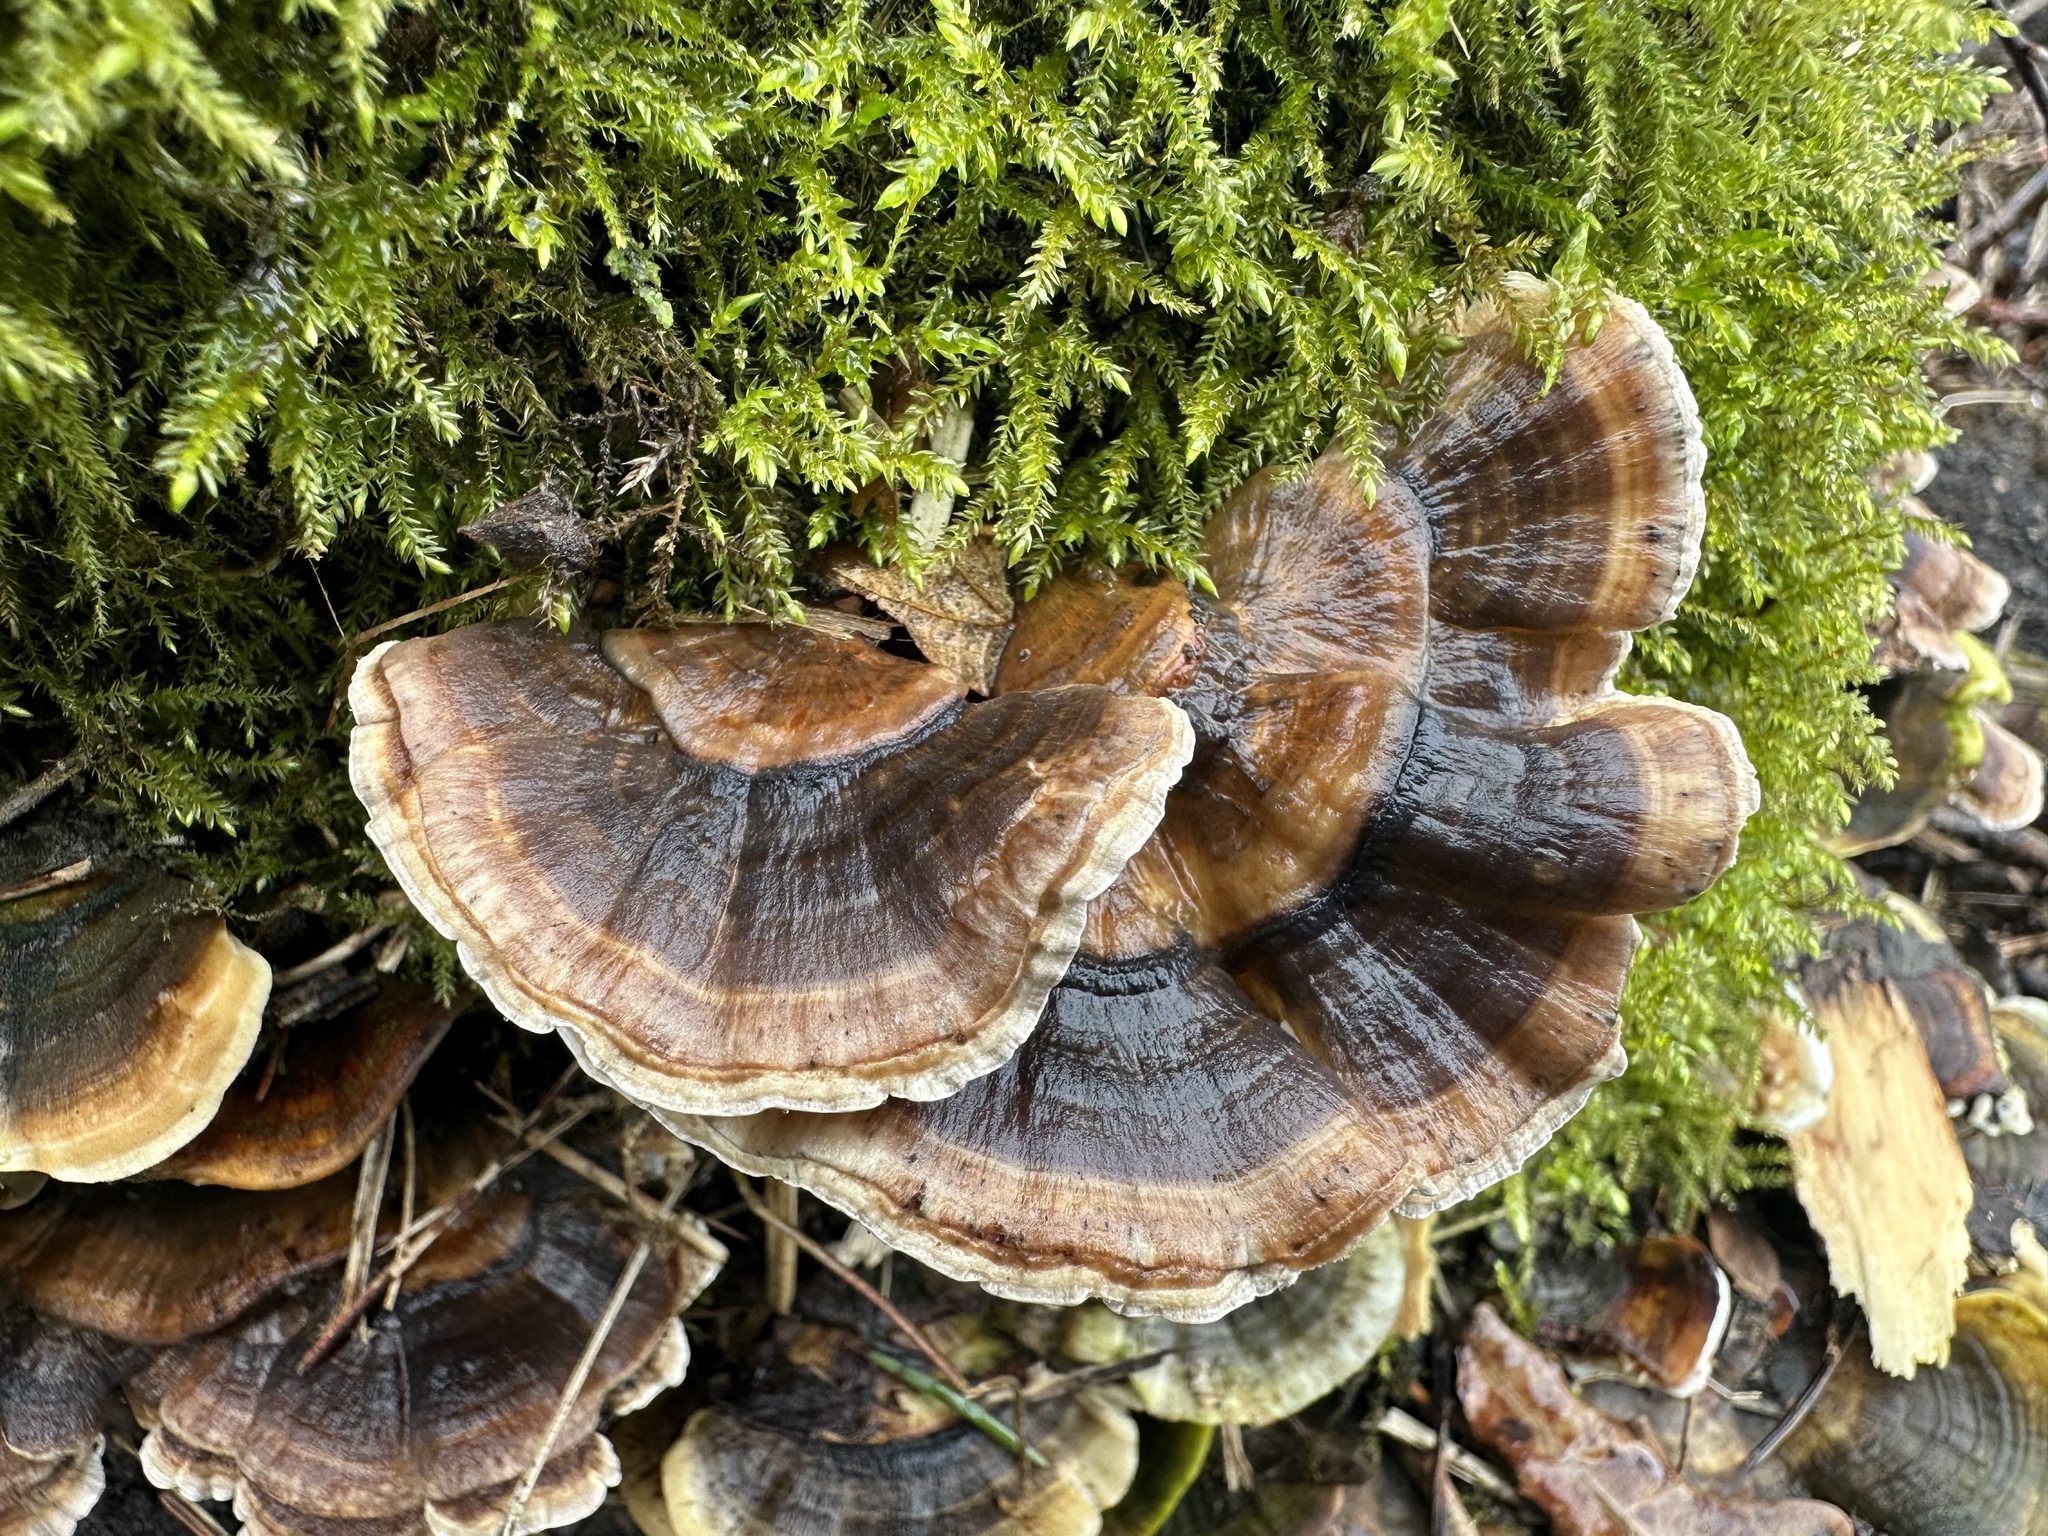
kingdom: Fungi
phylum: Basidiomycota
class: Agaricomycetes
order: Polyporales
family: Polyporaceae
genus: Trametes
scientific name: Trametes versicolor
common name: Turkeytail
